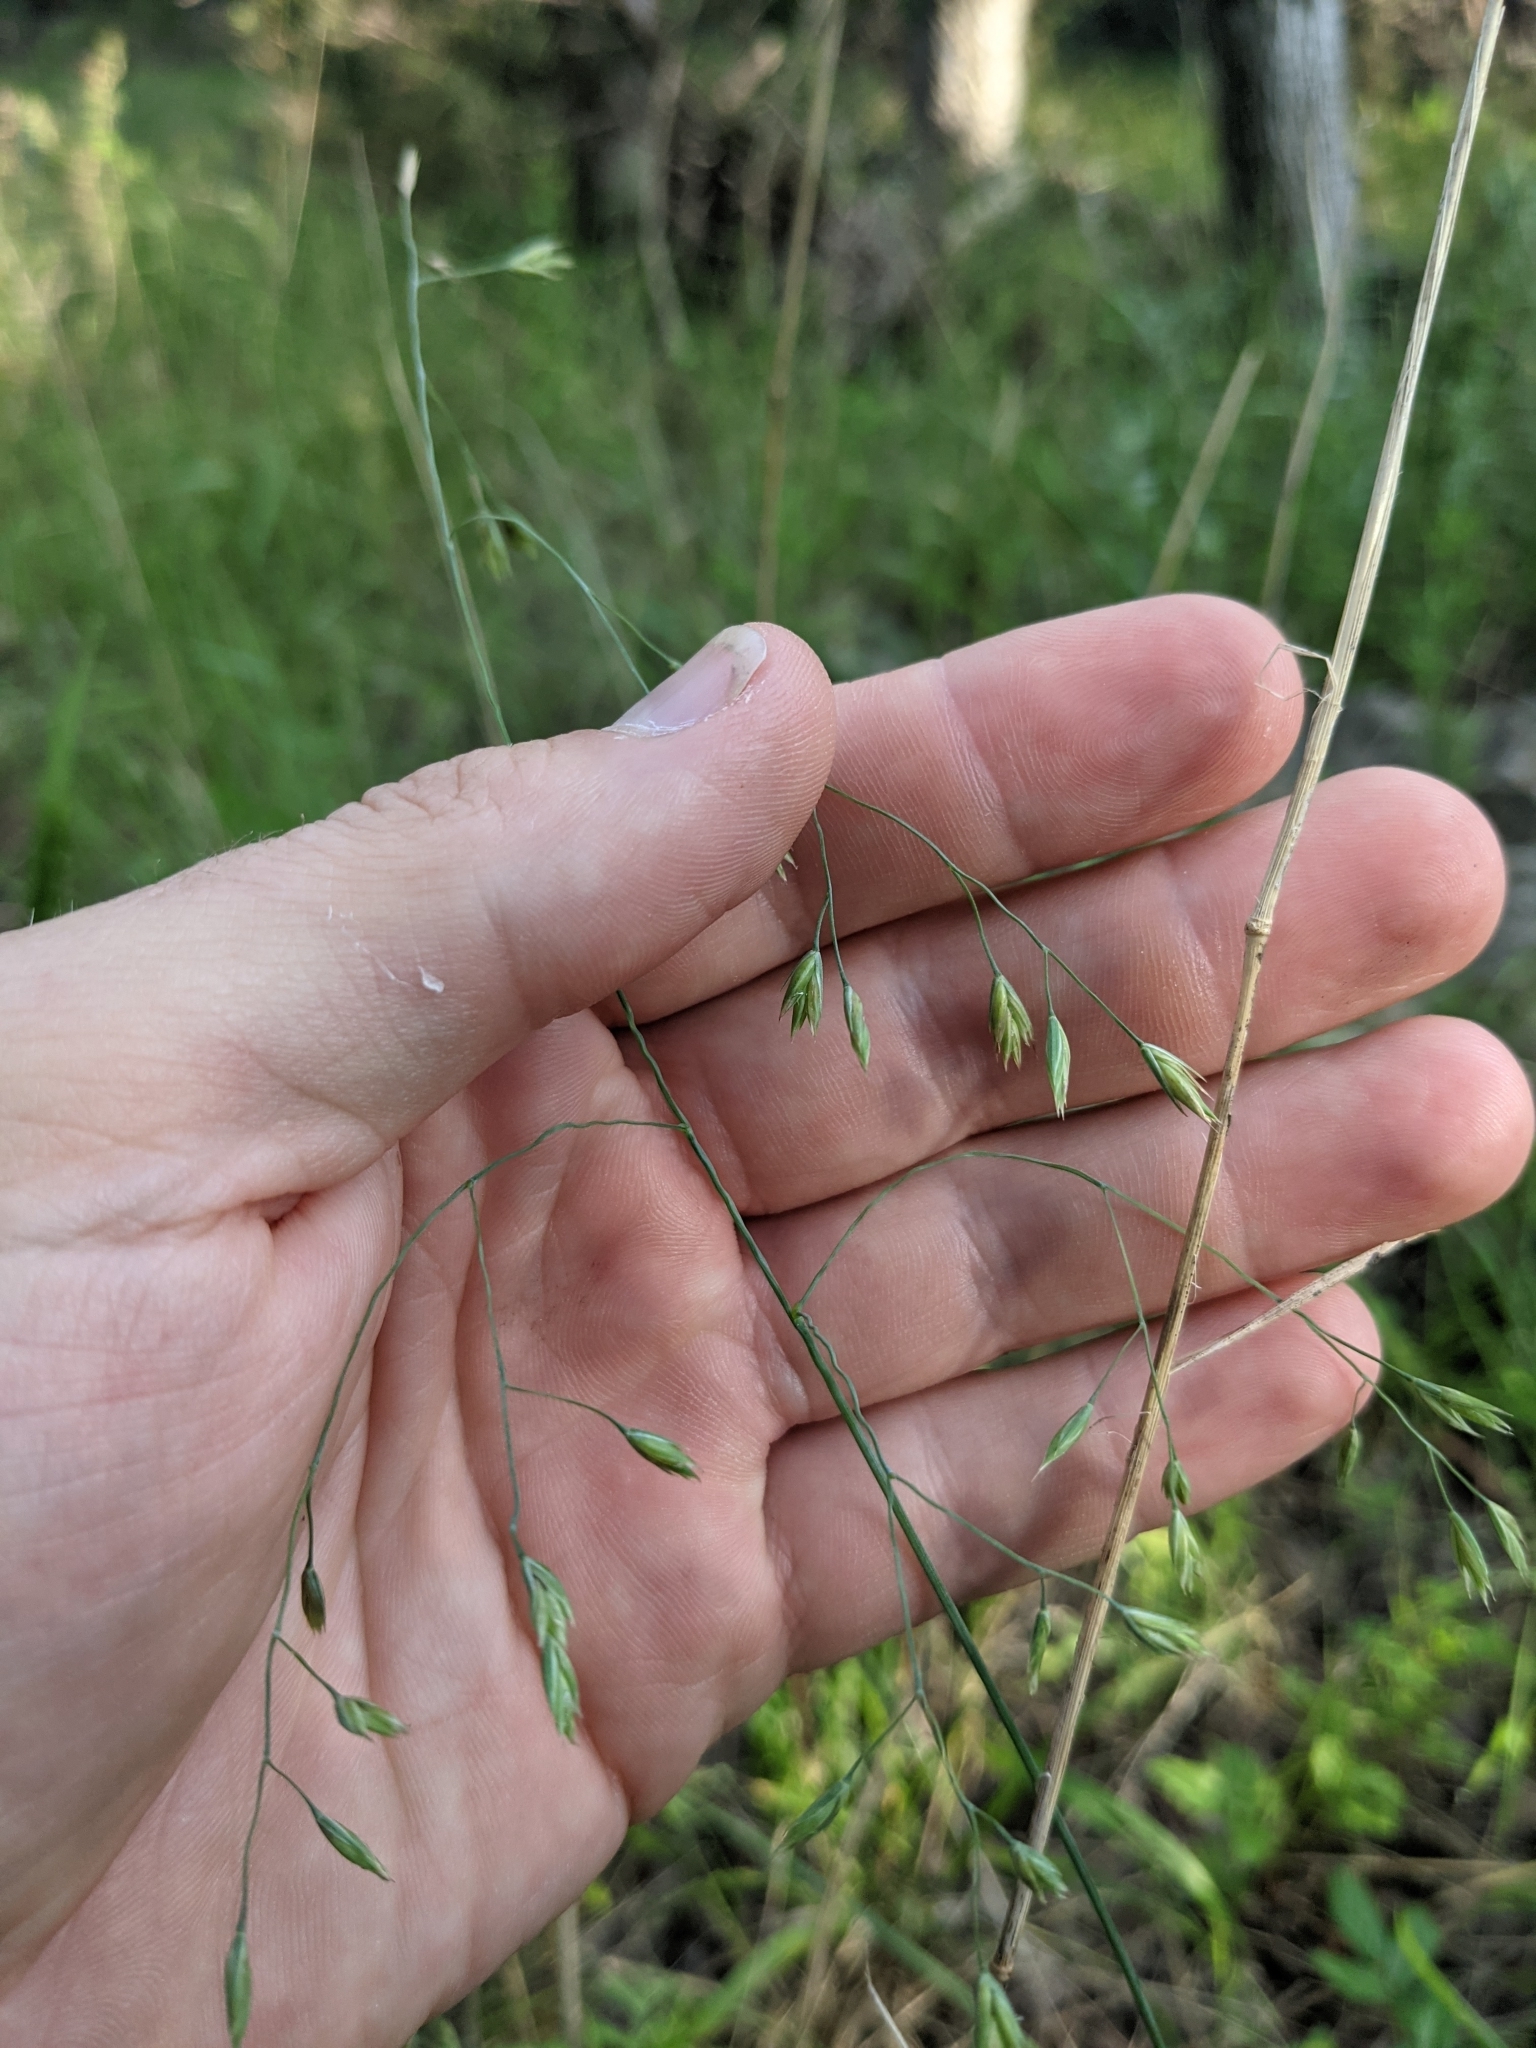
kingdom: Plantae
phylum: Tracheophyta
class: Liliopsida
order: Poales
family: Poaceae
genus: Festuca
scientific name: Festuca versuta
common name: Texas fescue
